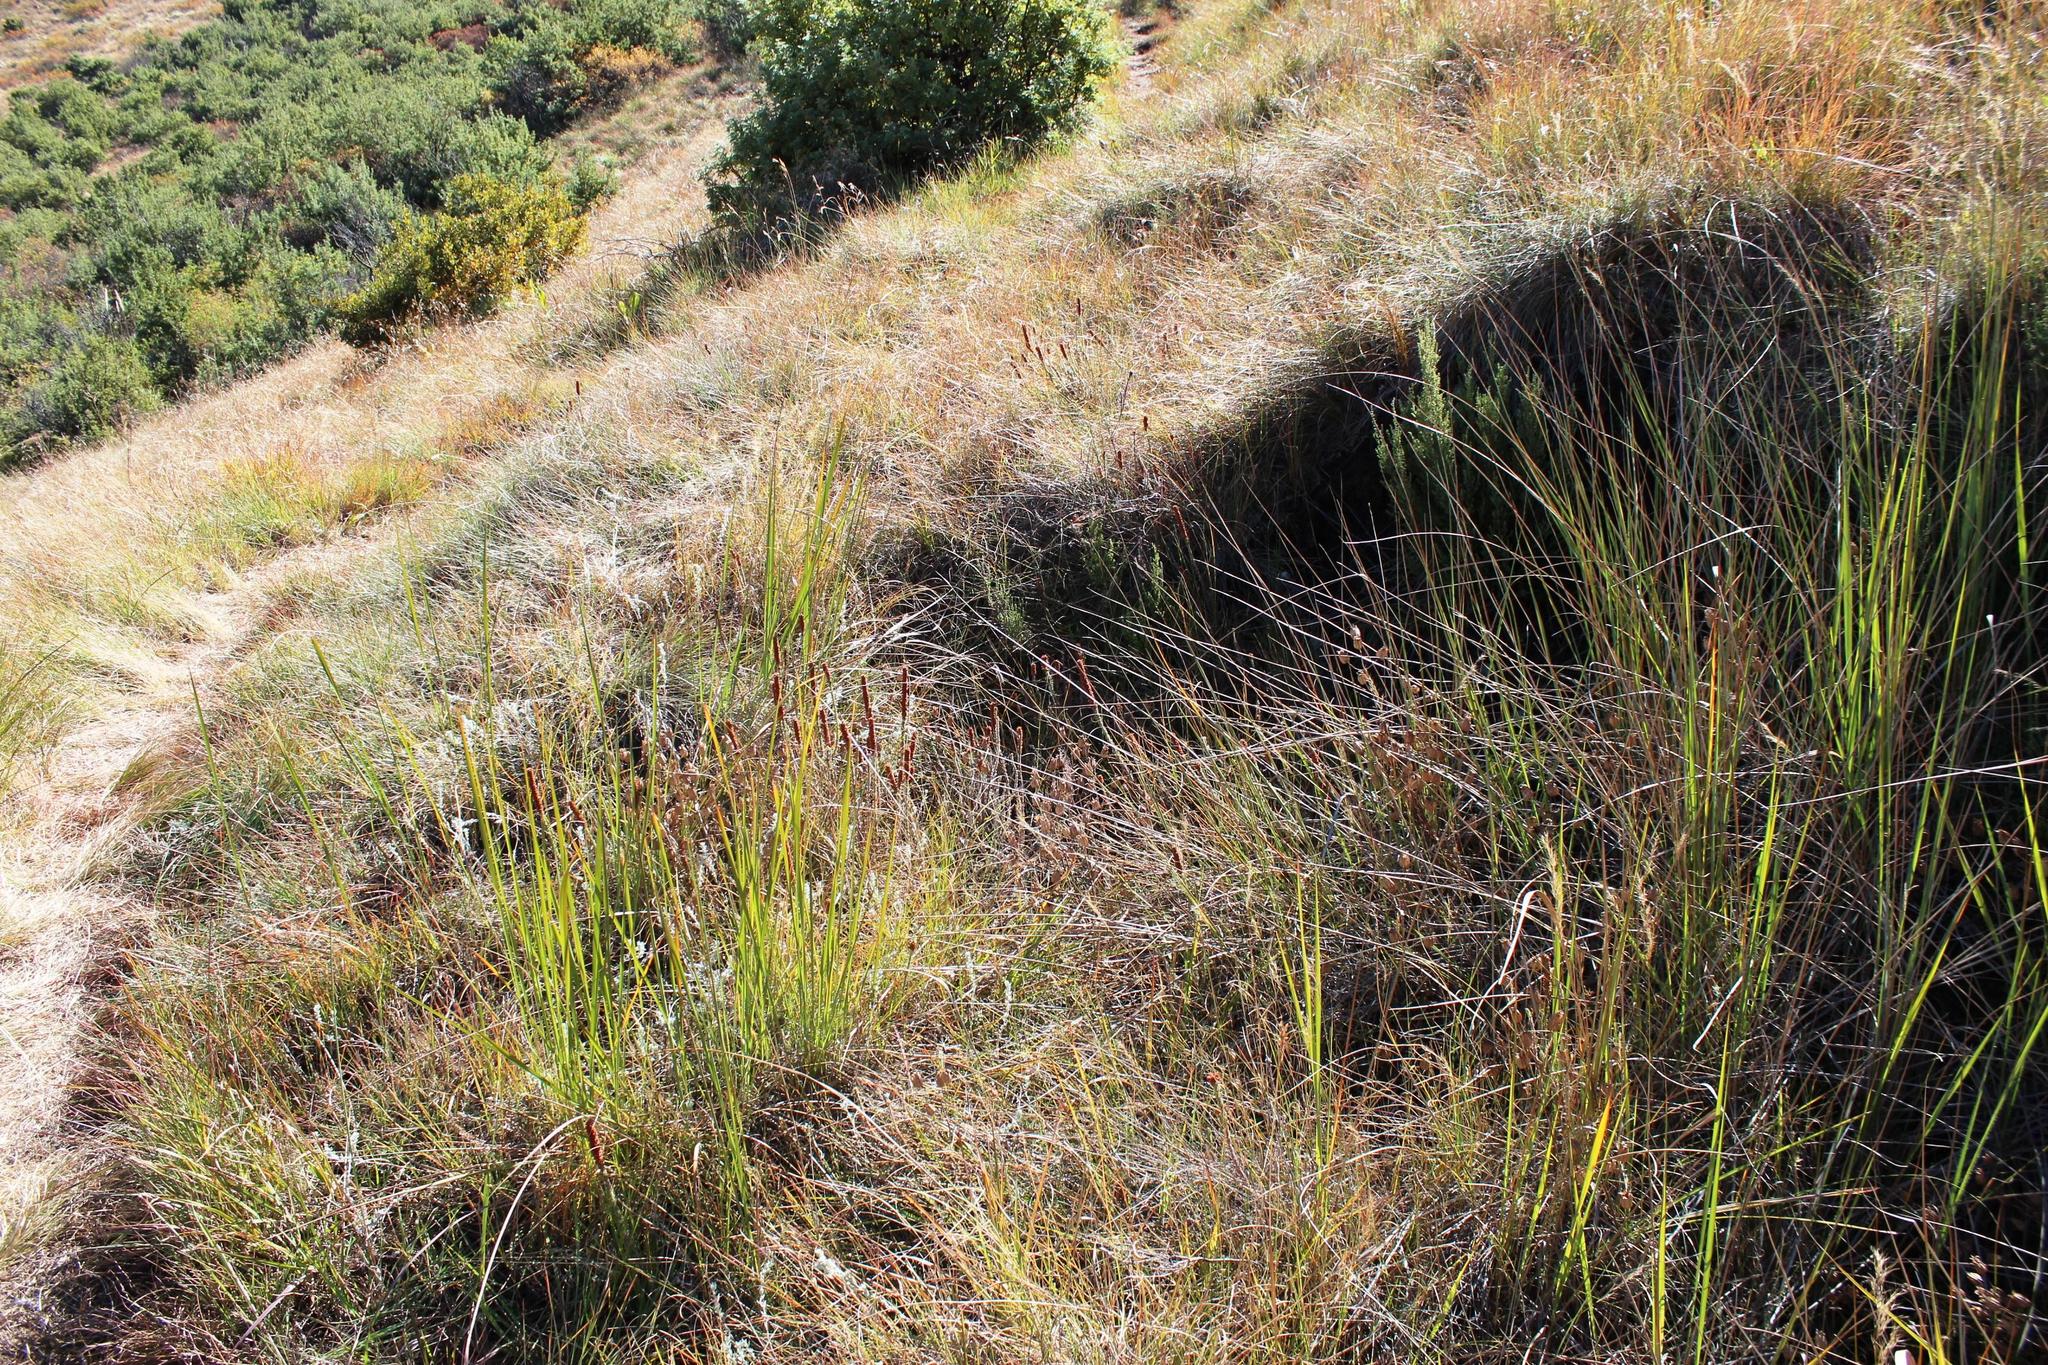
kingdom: Plantae
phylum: Tracheophyta
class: Magnoliopsida
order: Ericales
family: Ericaceae
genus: Erica
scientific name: Erica alopecurus
